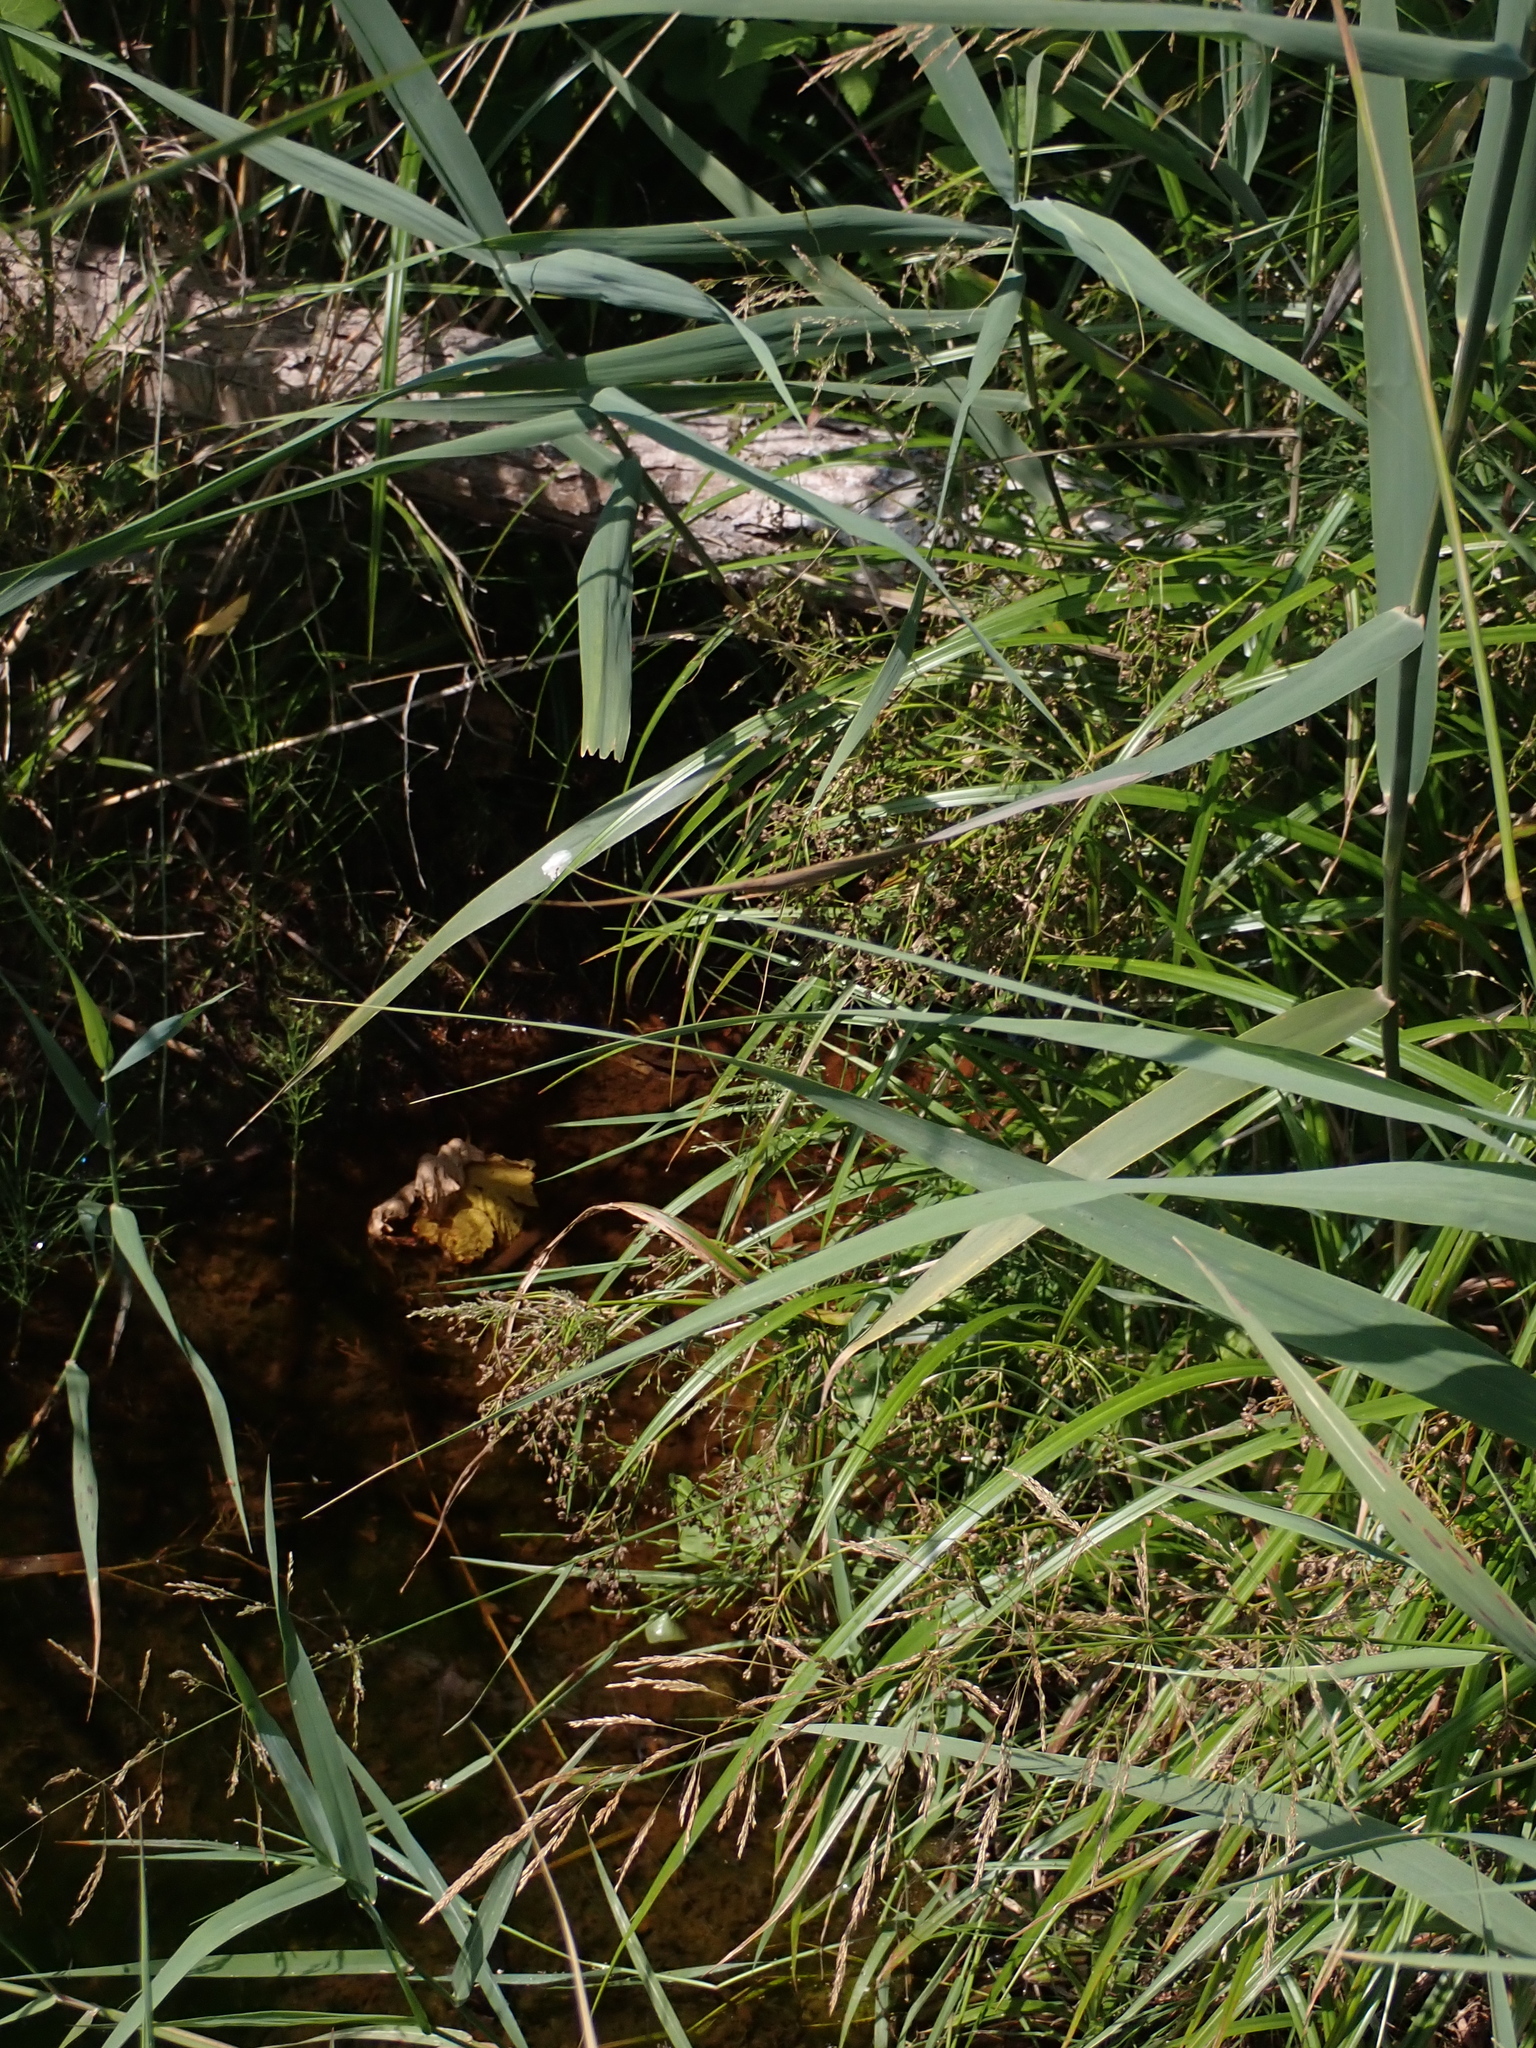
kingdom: Plantae
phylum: Tracheophyta
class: Liliopsida
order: Poales
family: Cyperaceae
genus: Scirpus
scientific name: Scirpus sylvaticus
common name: Wood club-rush
